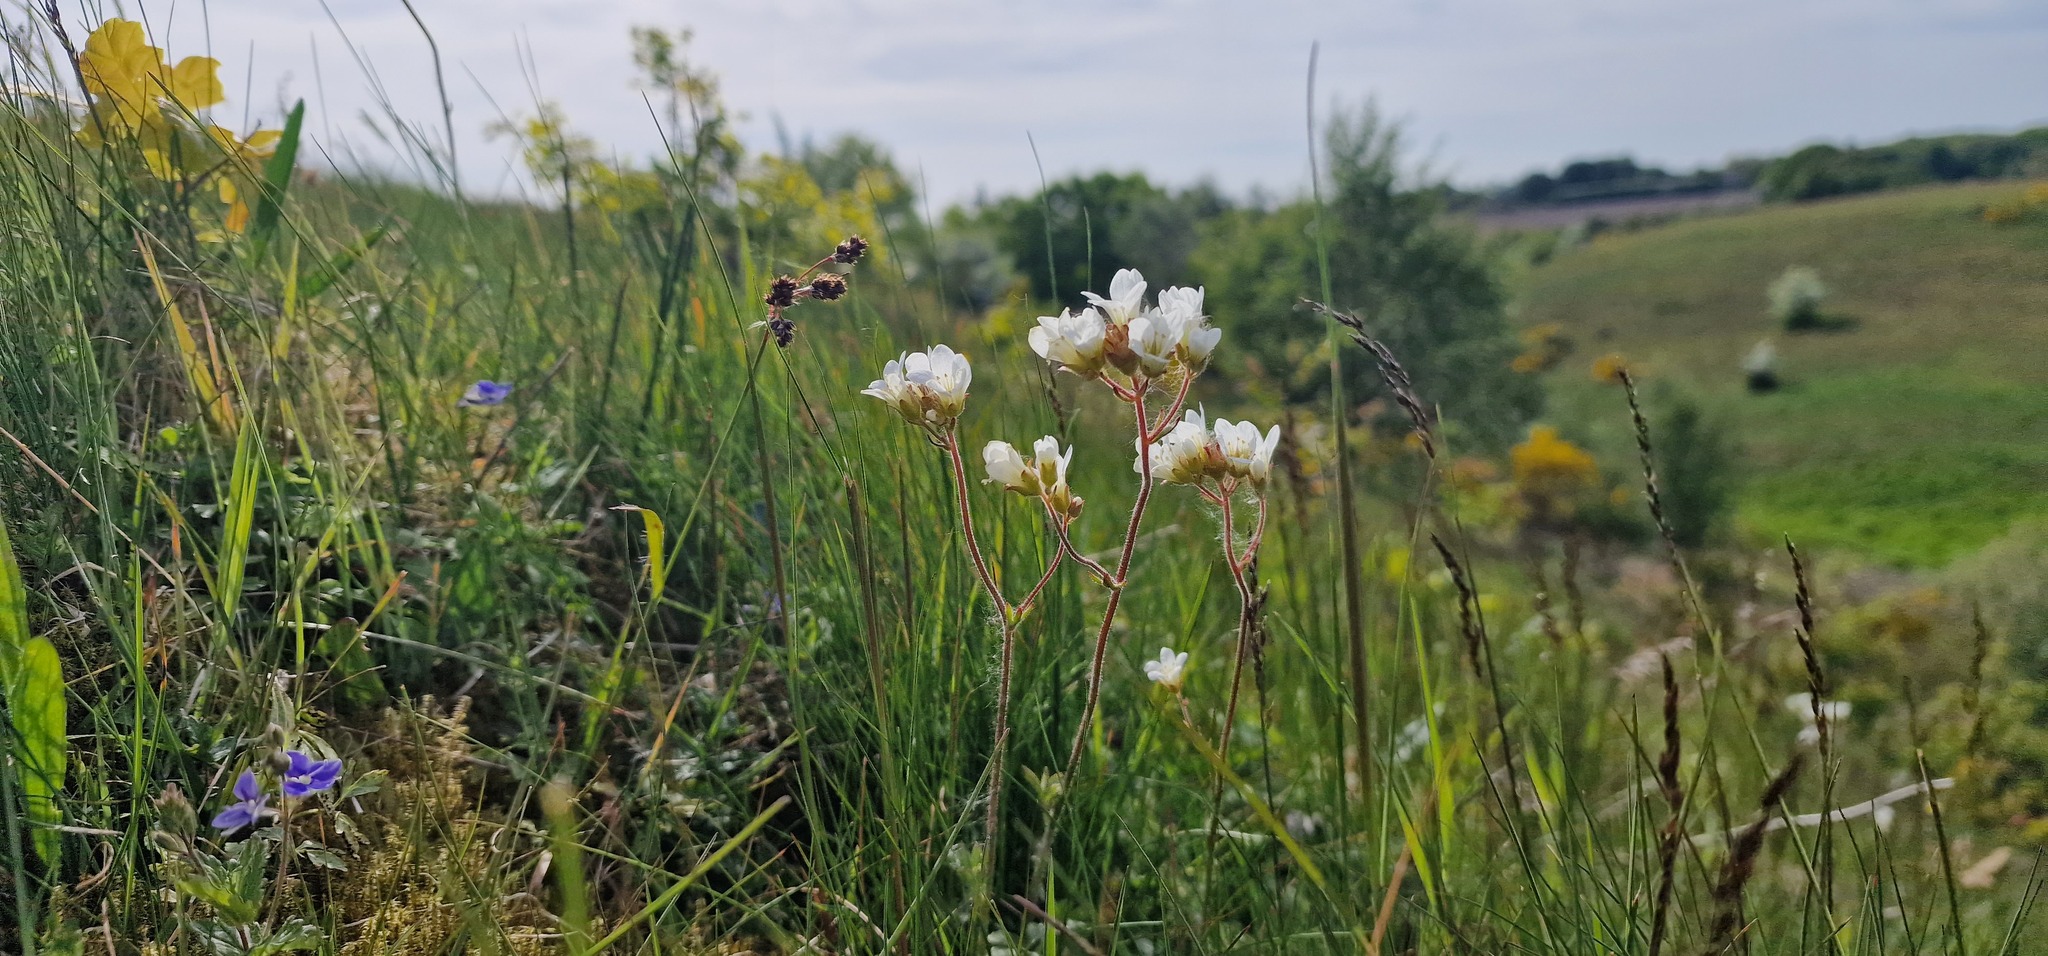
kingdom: Plantae
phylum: Tracheophyta
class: Magnoliopsida
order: Saxifragales
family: Saxifragaceae
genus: Saxifraga
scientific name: Saxifraga granulata
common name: Meadow saxifrage
